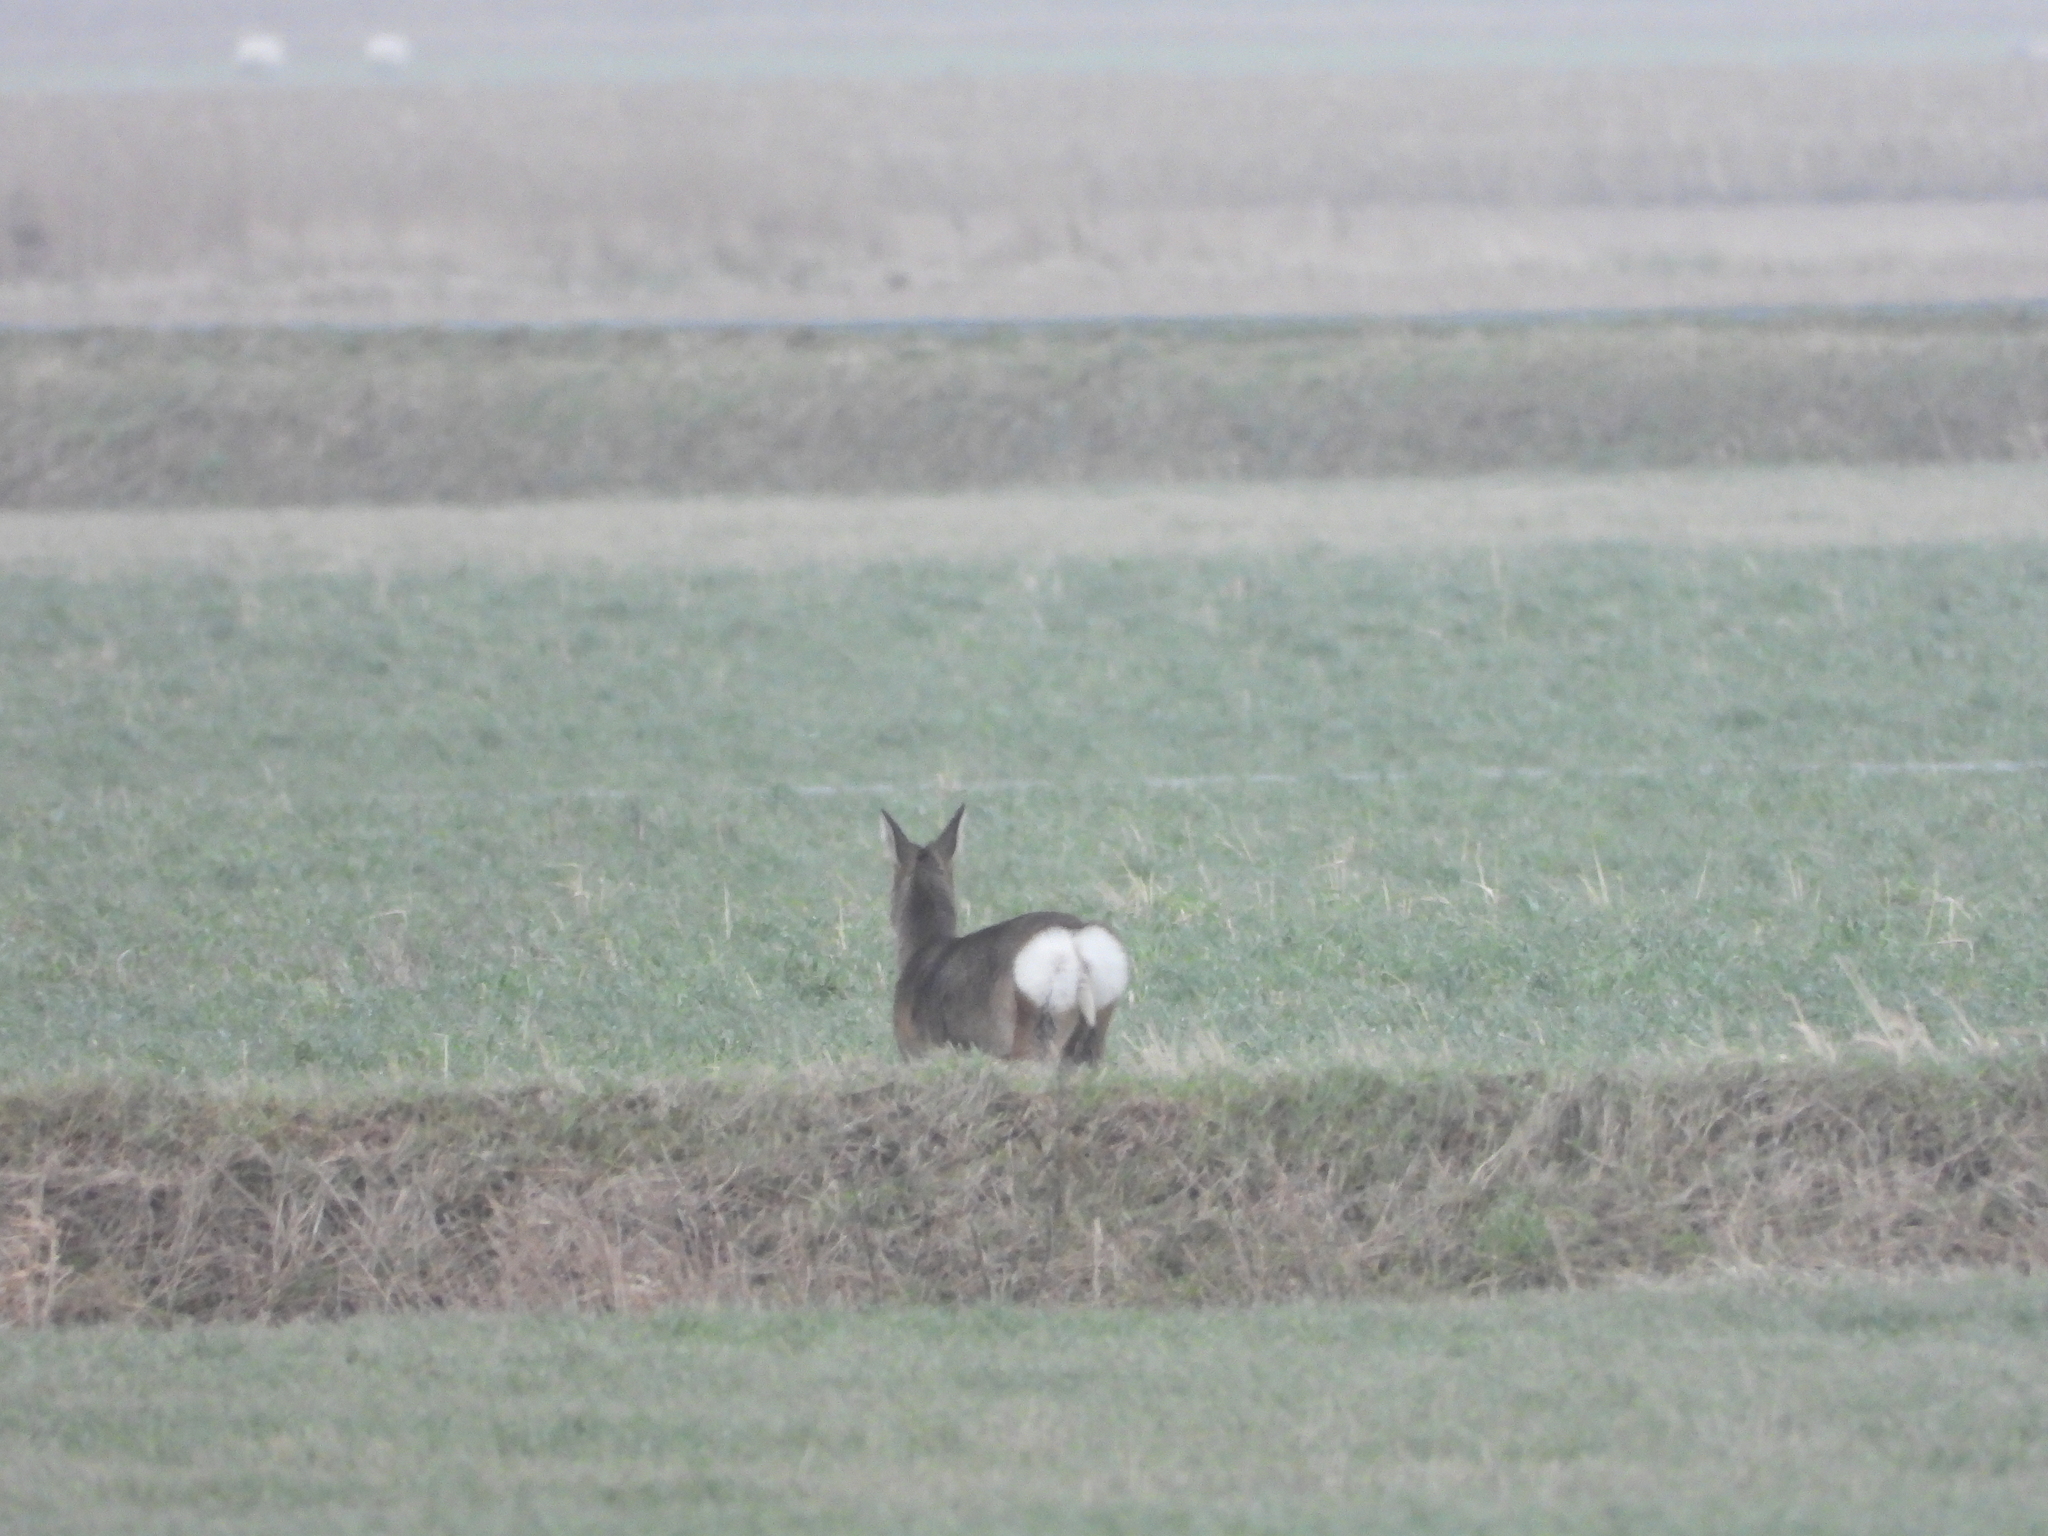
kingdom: Animalia
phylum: Chordata
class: Mammalia
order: Artiodactyla
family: Cervidae
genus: Capreolus
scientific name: Capreolus capreolus
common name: Western roe deer
